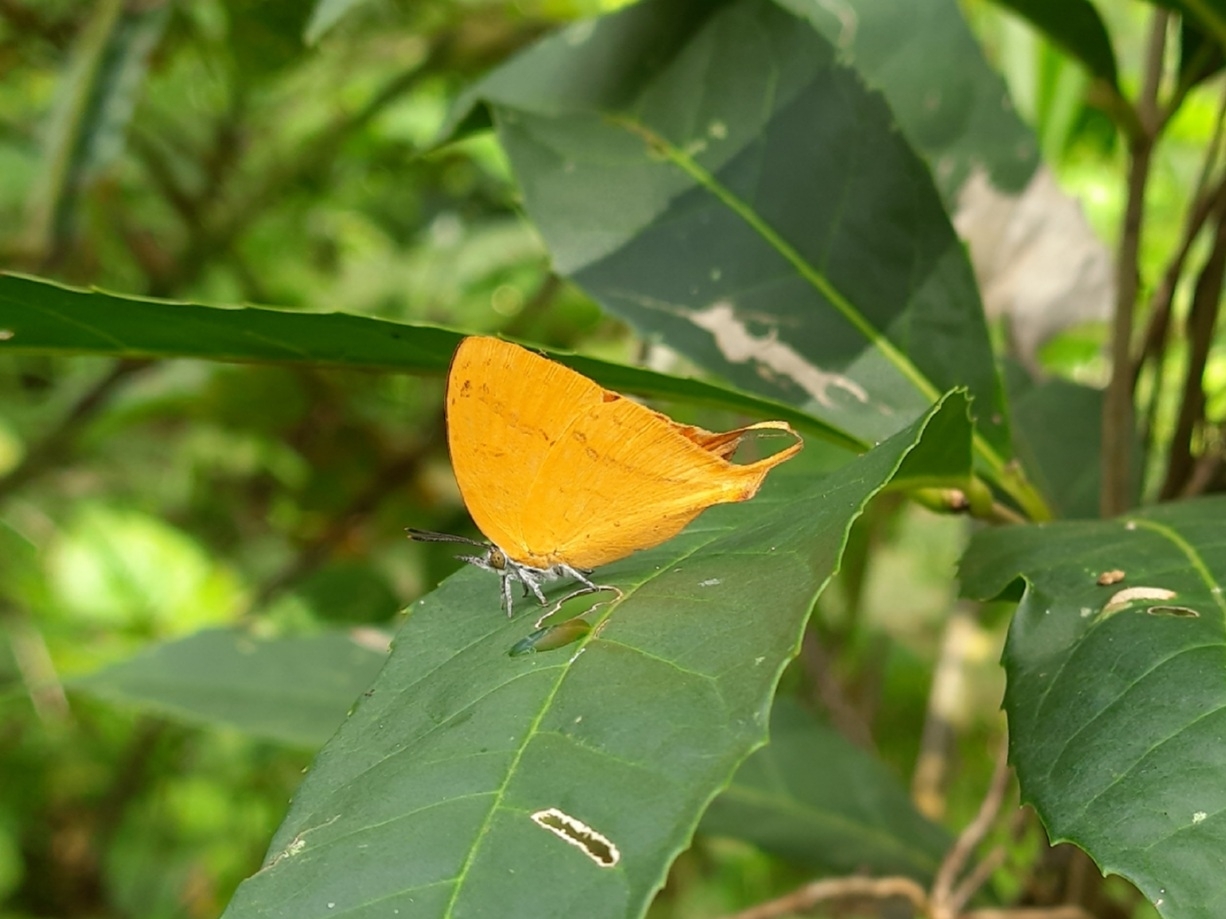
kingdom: Animalia
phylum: Arthropoda
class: Insecta
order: Lepidoptera
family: Lycaenidae
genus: Loxura
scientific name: Loxura atymnus
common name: Common yamfly
